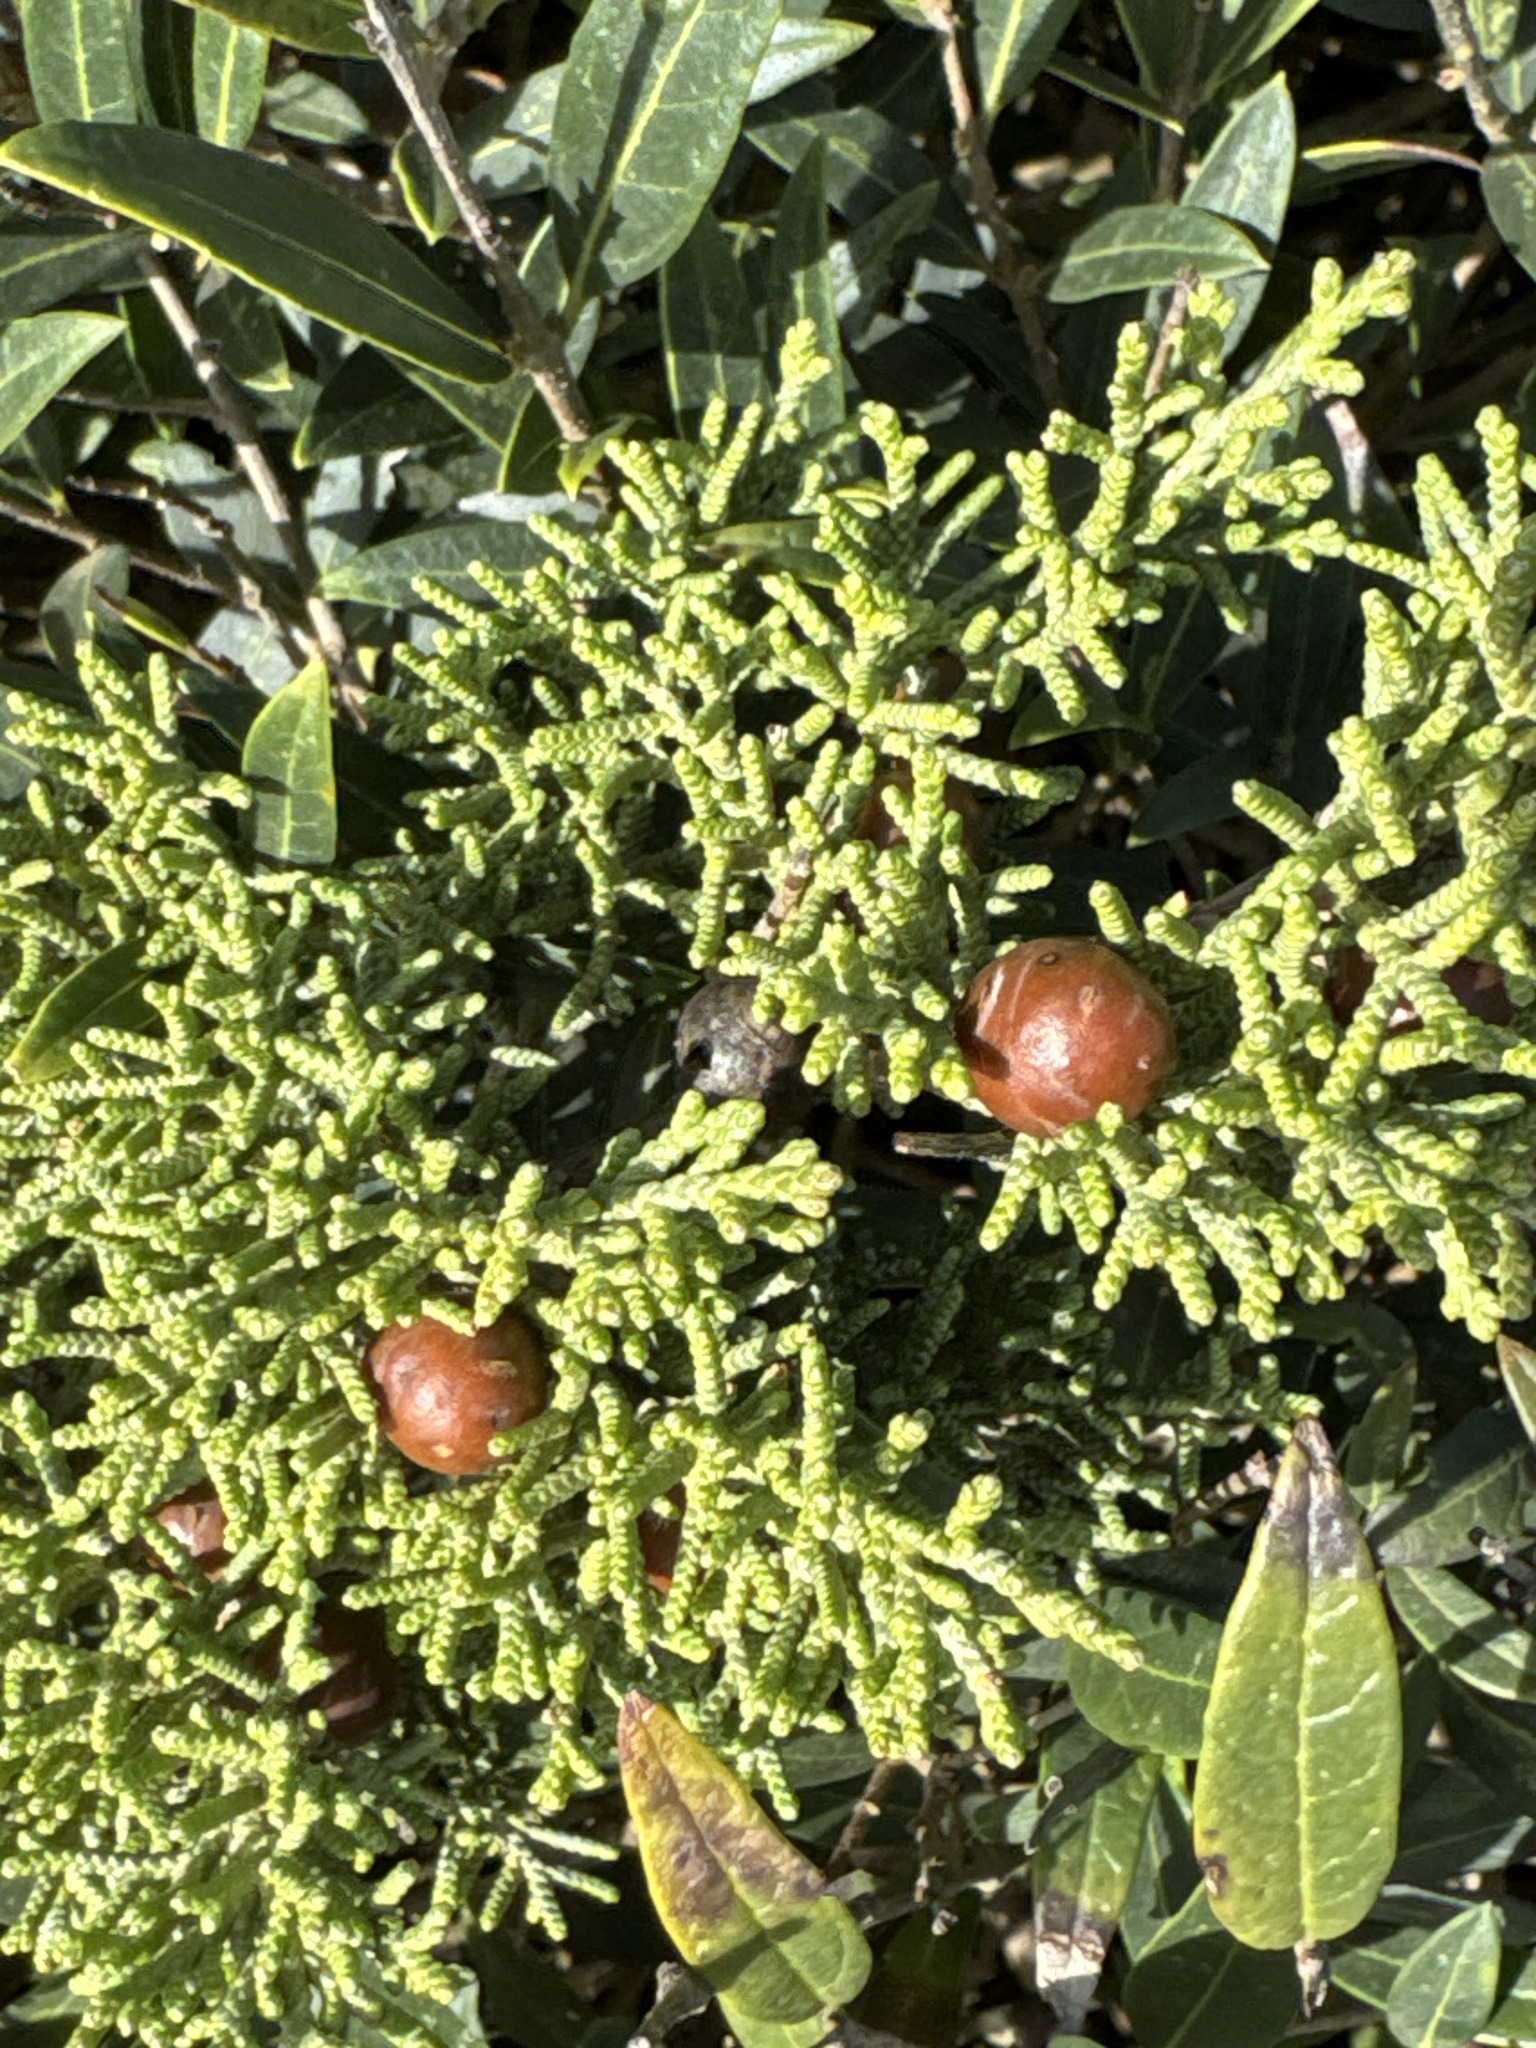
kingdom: Plantae
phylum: Tracheophyta
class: Pinopsida
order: Pinales
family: Cupressaceae
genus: Juniperus
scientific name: Juniperus phoenicea
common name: Phoenician juniper
